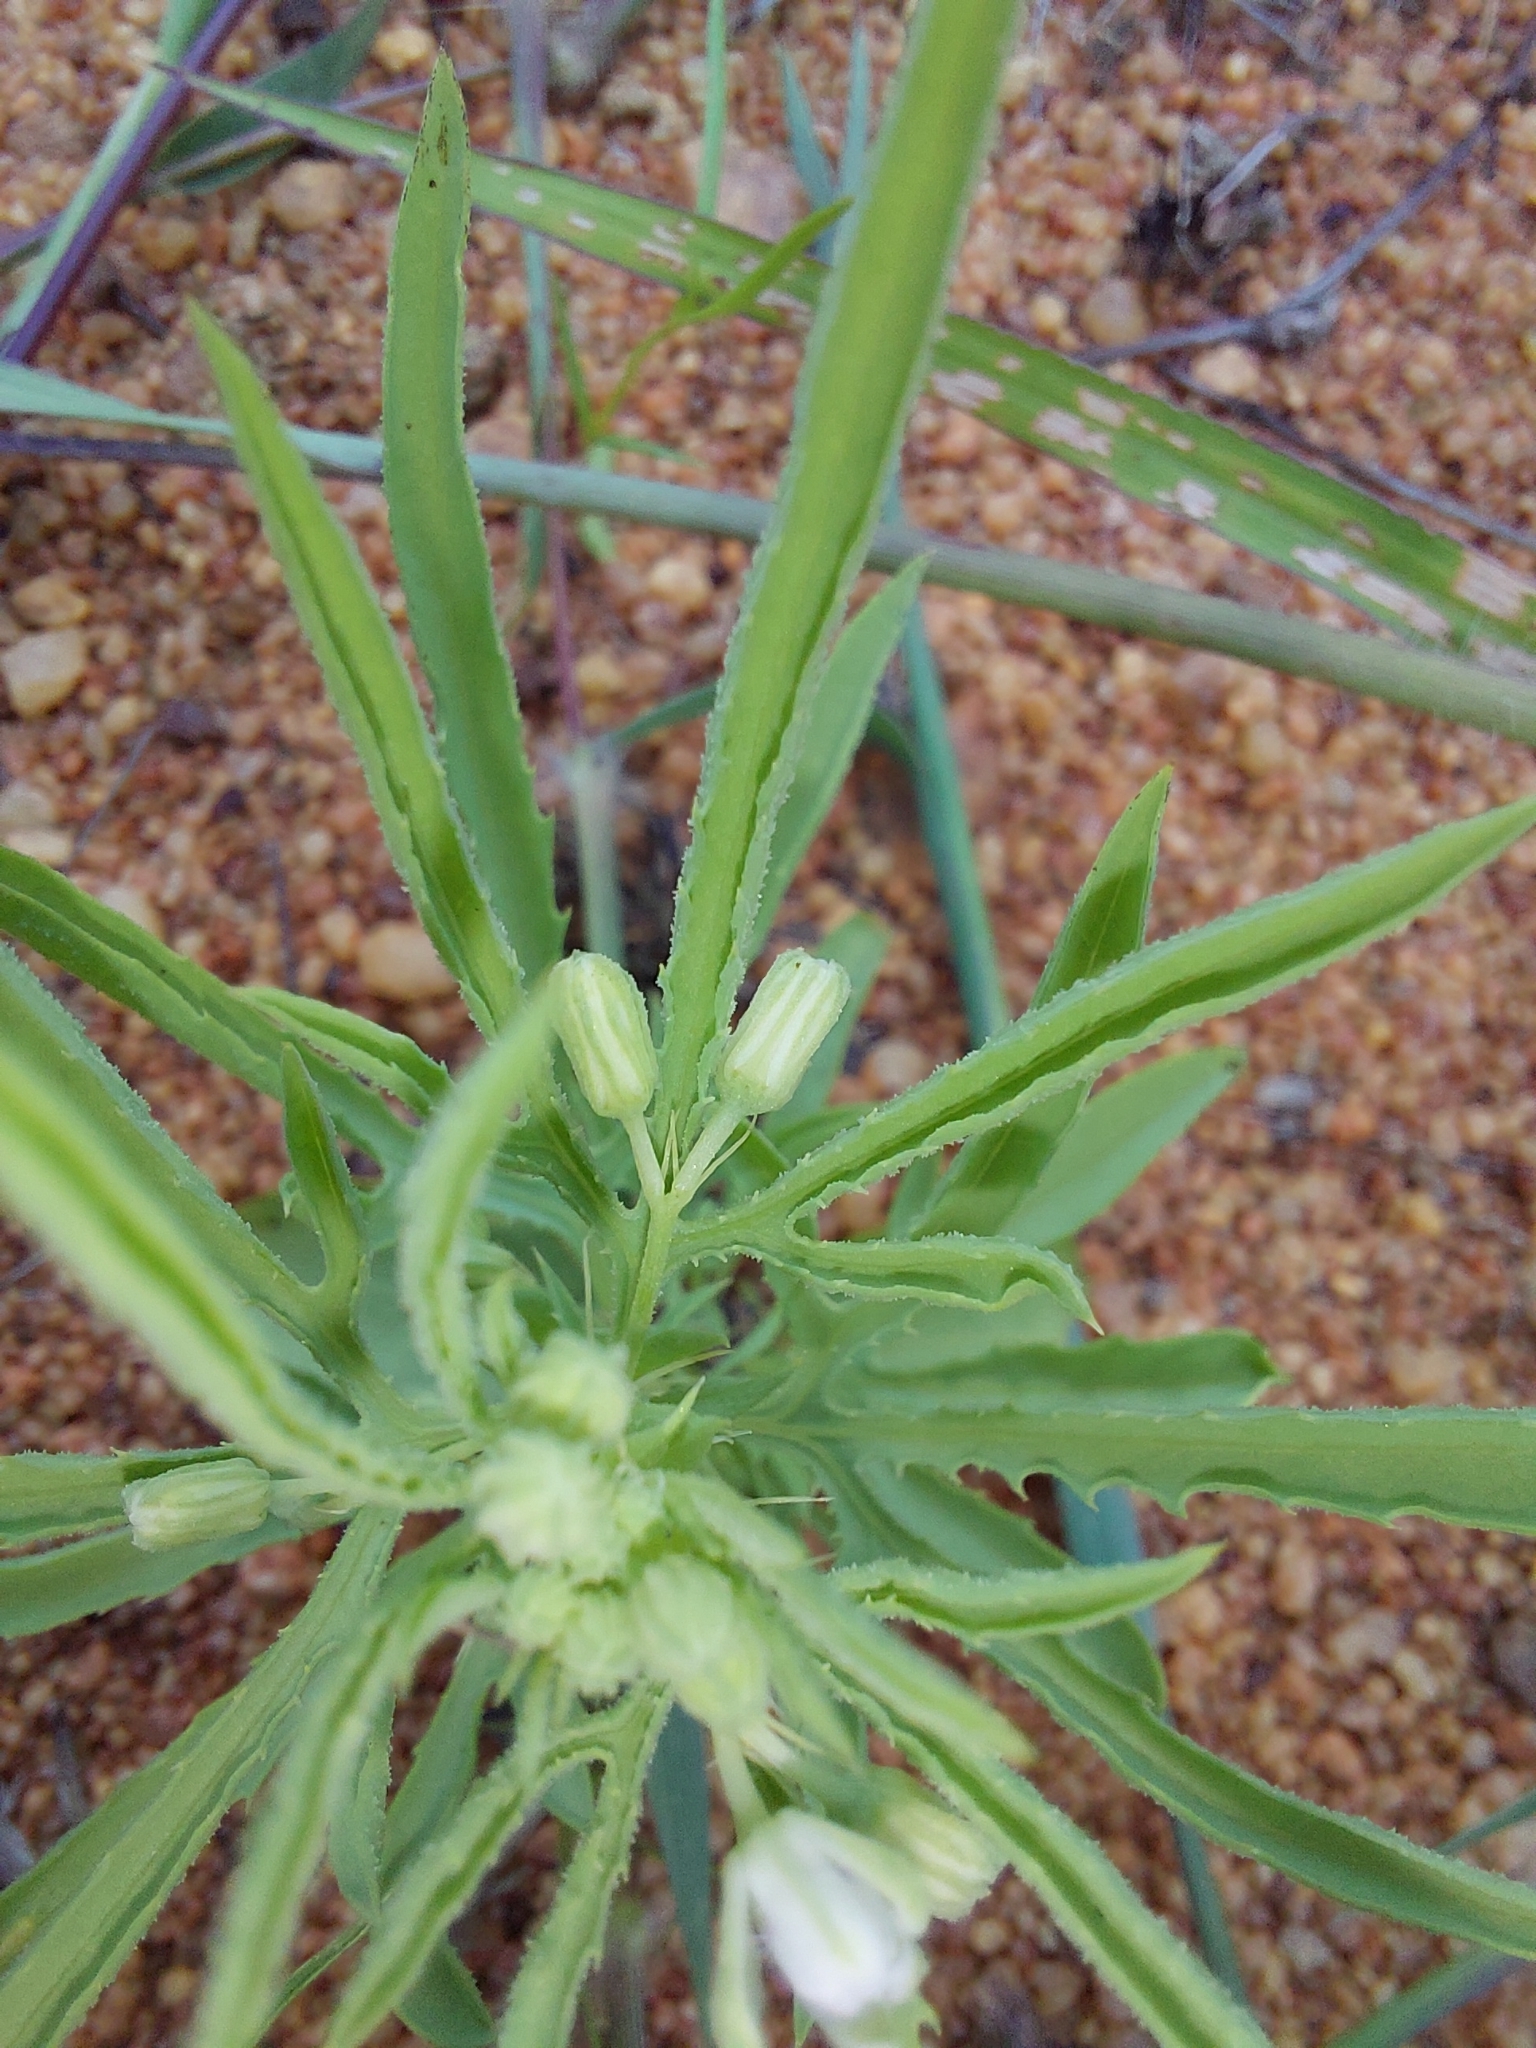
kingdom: Plantae
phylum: Tracheophyta
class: Magnoliopsida
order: Malpighiales
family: Passifloraceae
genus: Basananthe
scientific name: Basananthe pedata
